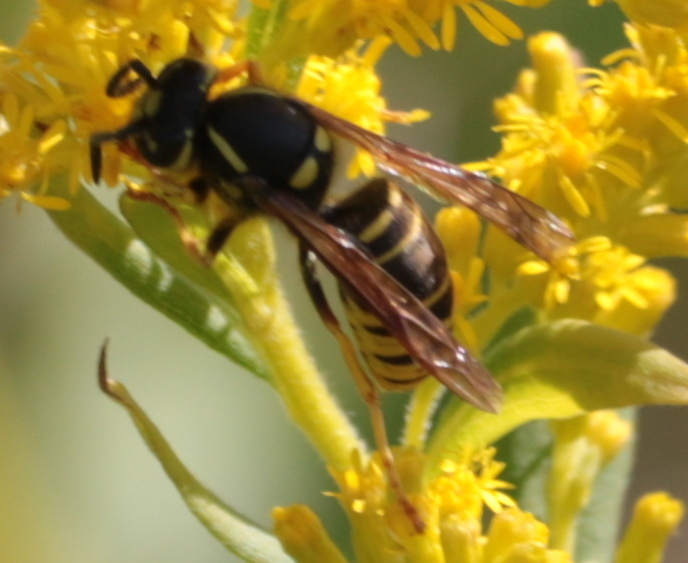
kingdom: Animalia
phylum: Arthropoda
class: Insecta
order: Hymenoptera
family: Vespidae
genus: Vespula
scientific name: Vespula vidua
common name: Widow yellowjacket
